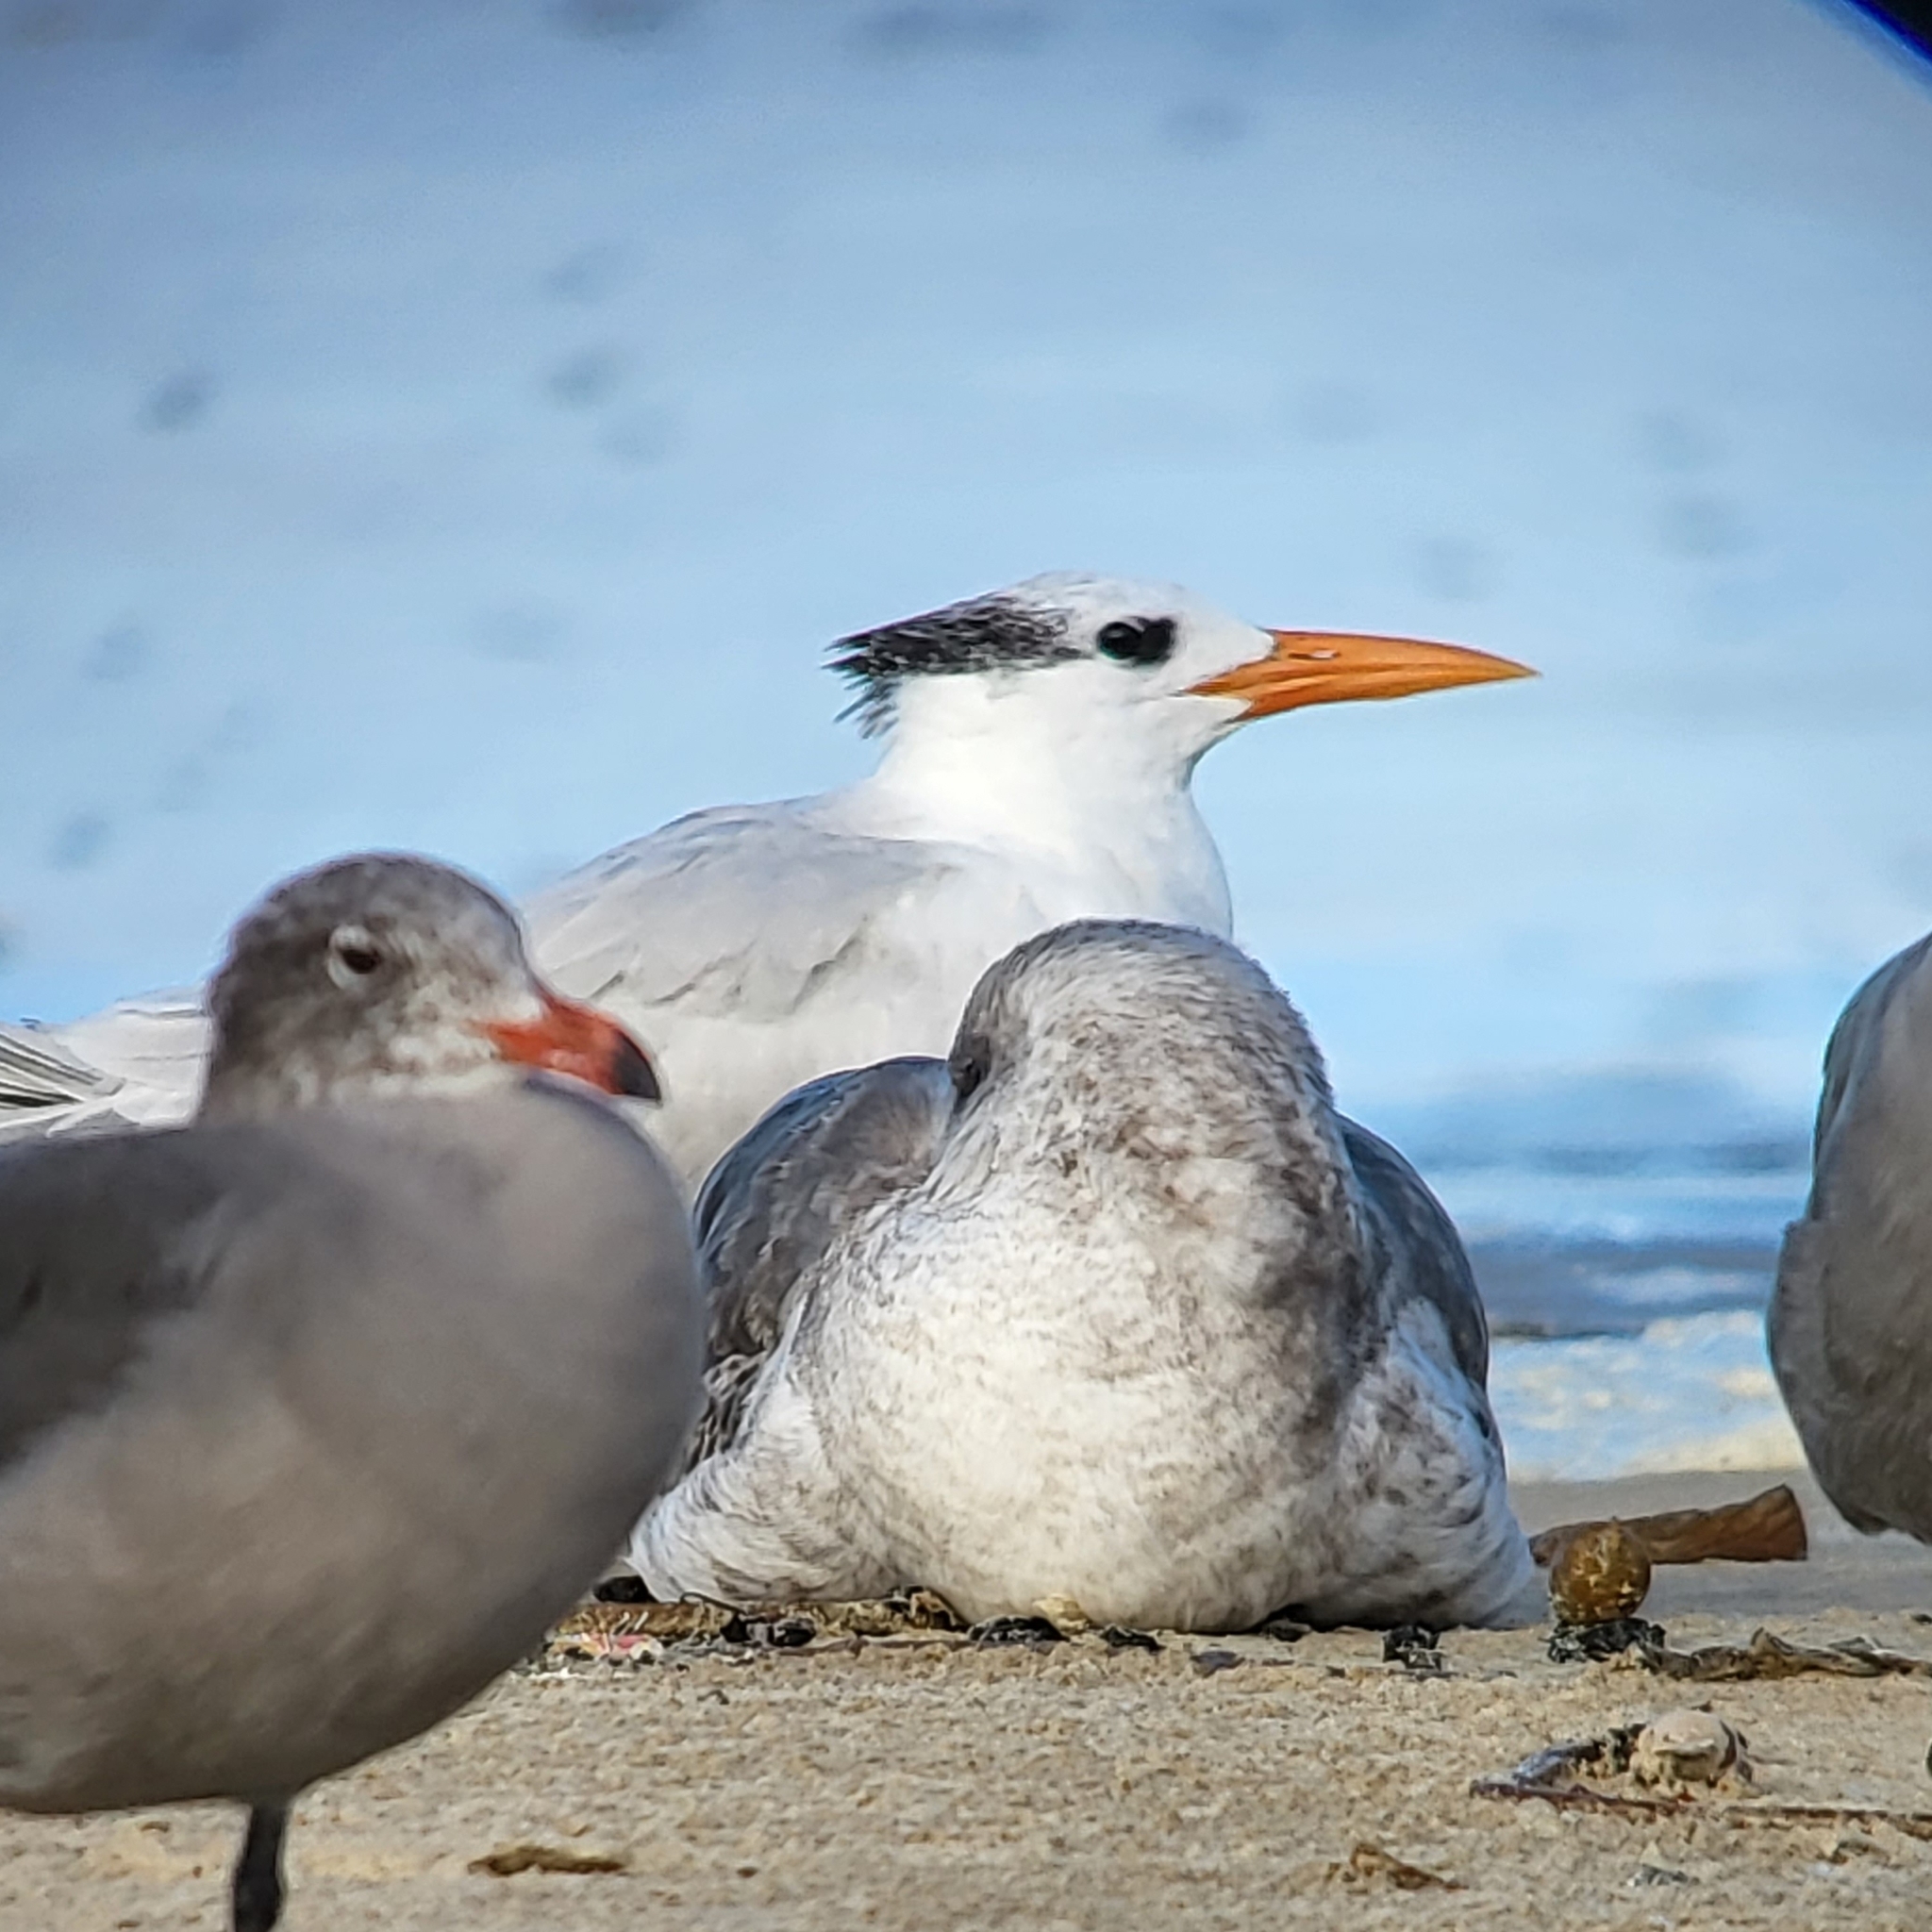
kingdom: Animalia
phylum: Chordata
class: Aves
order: Charadriiformes
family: Laridae
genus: Thalasseus
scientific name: Thalasseus maximus
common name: Royal tern
